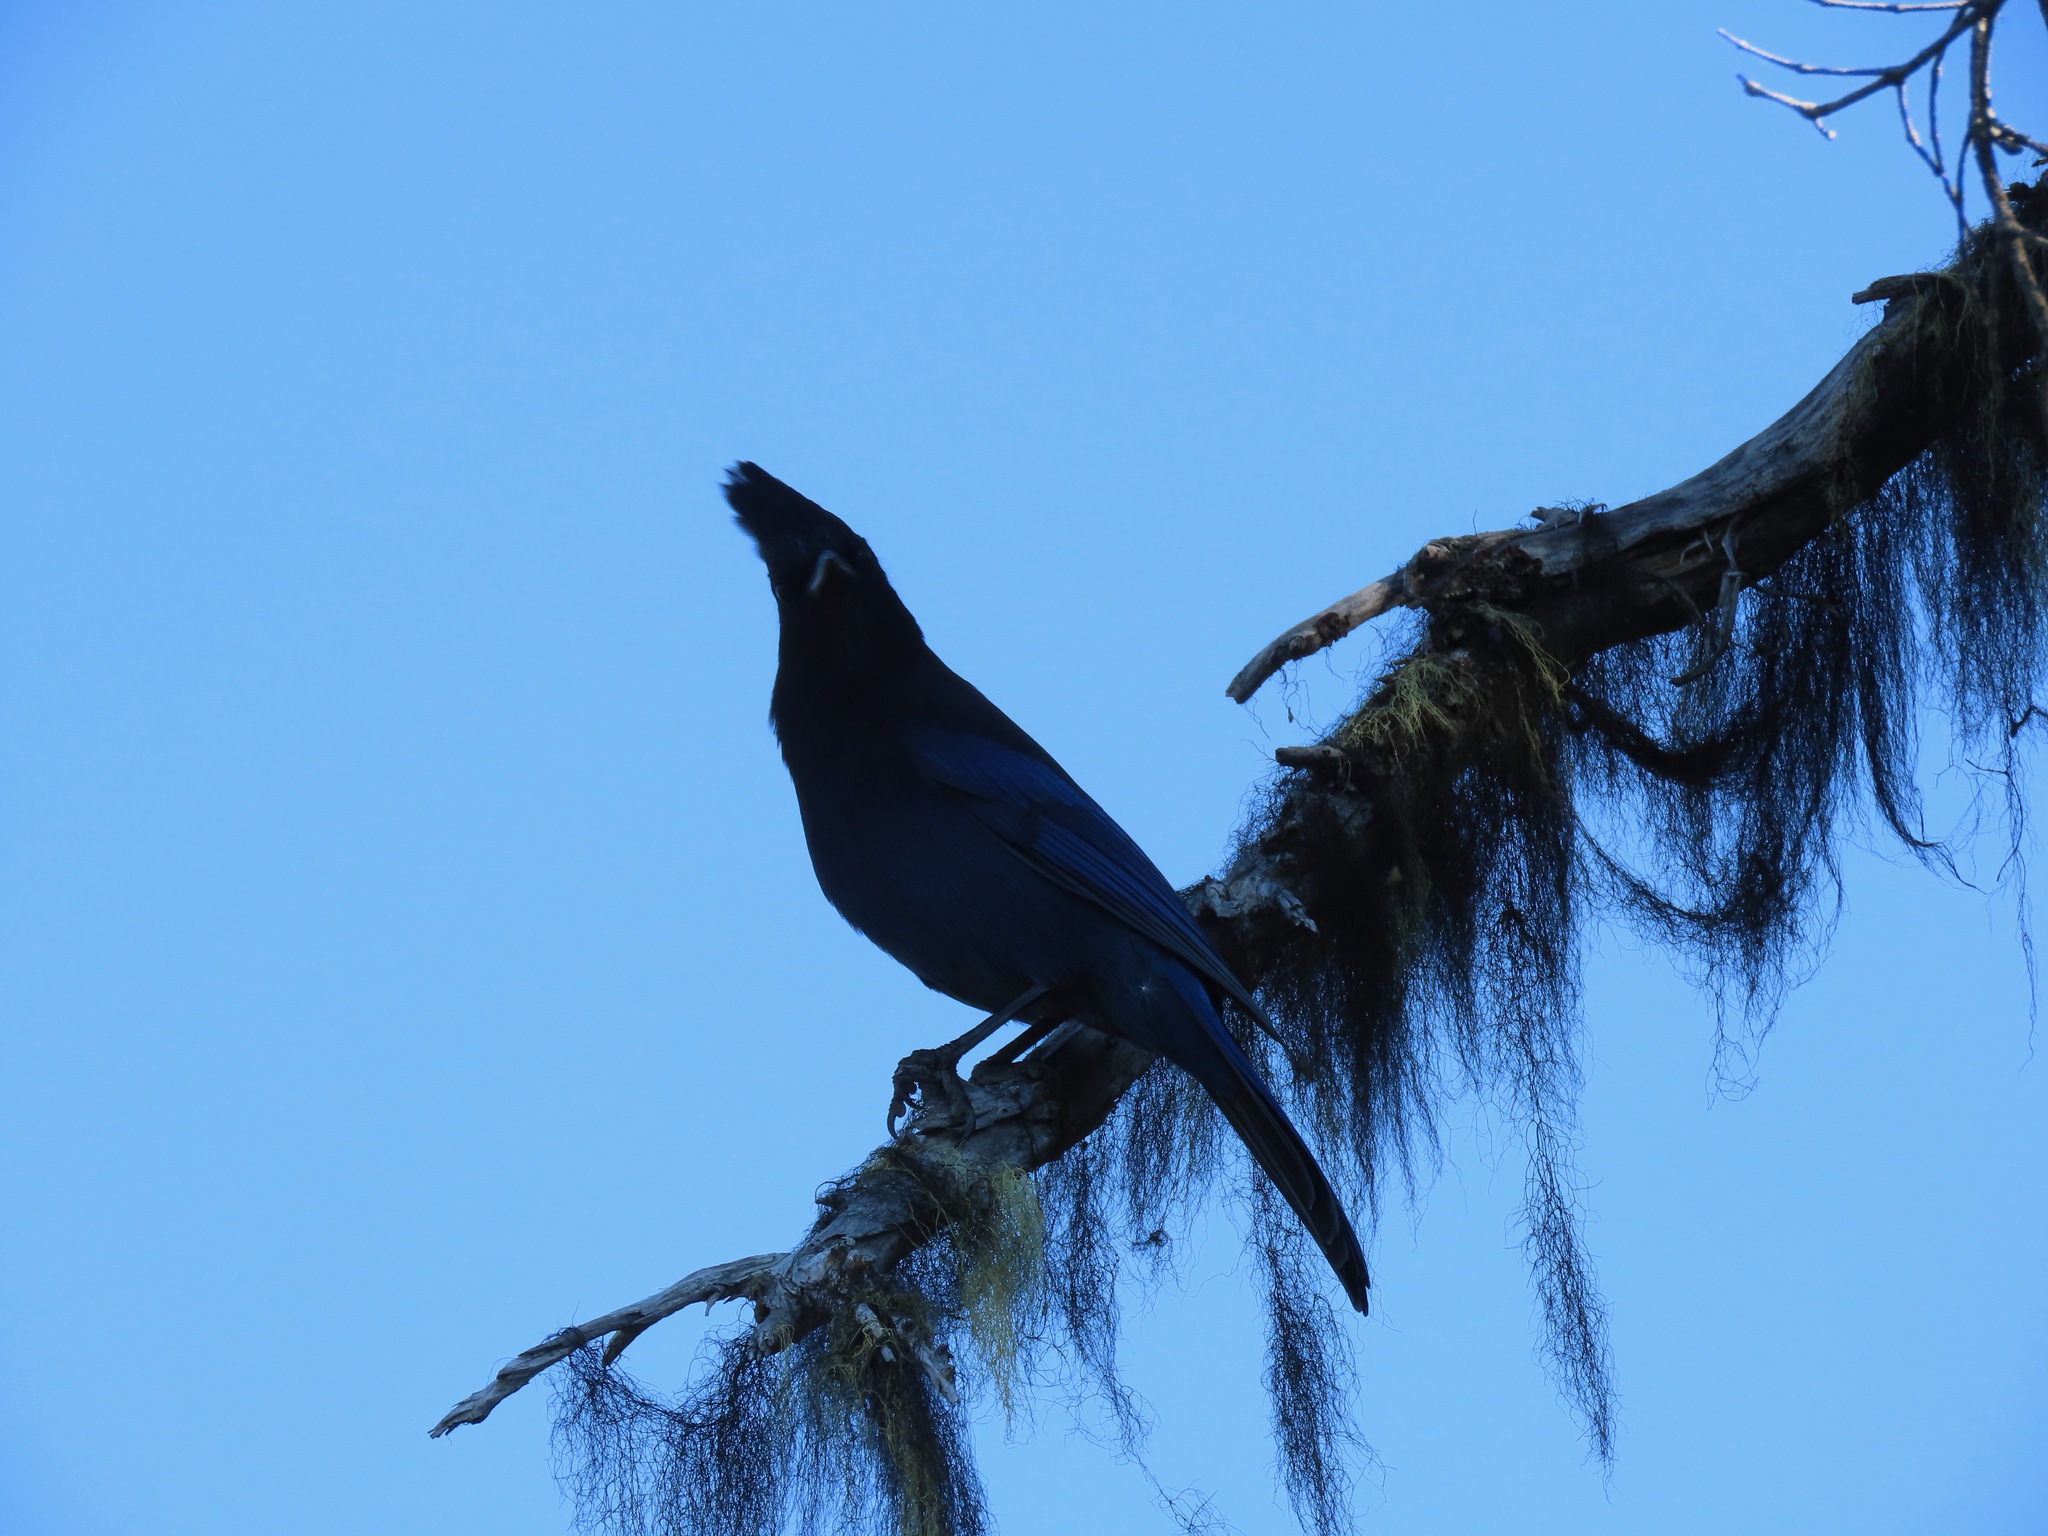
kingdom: Animalia
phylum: Chordata
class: Aves
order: Passeriformes
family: Corvidae
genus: Cyanocitta
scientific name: Cyanocitta stelleri
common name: Steller's jay
